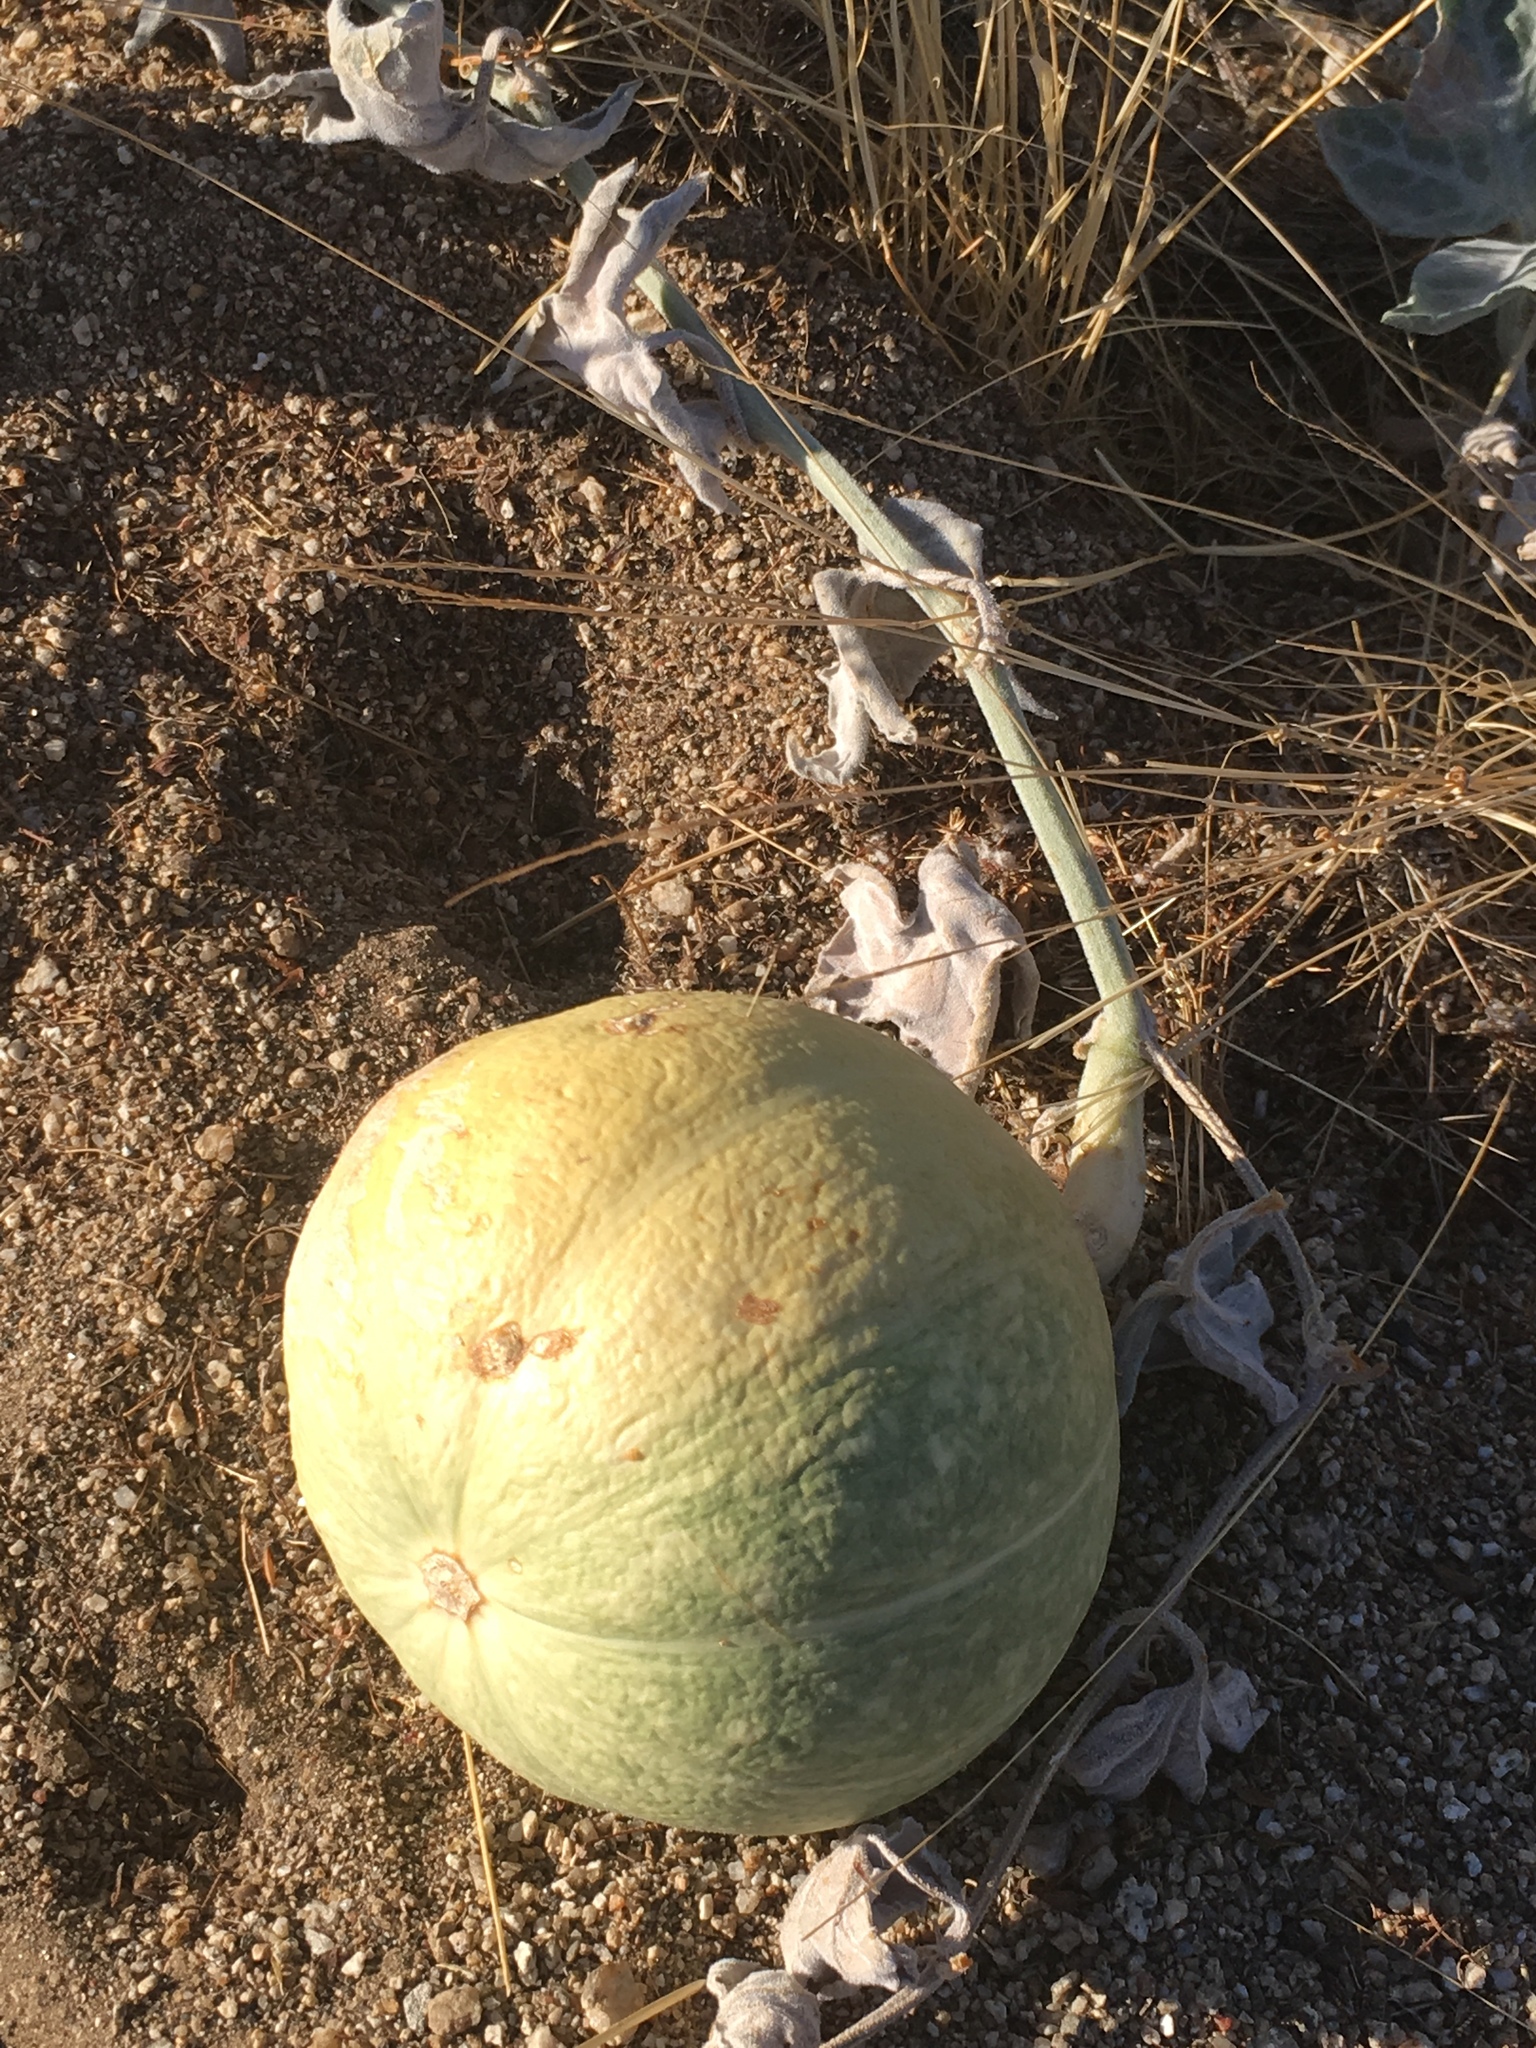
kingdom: Plantae
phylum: Tracheophyta
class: Magnoliopsida
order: Cucurbitales
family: Cucurbitaceae
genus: Cucurbita
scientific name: Cucurbita palmata
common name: Coyote-melon
